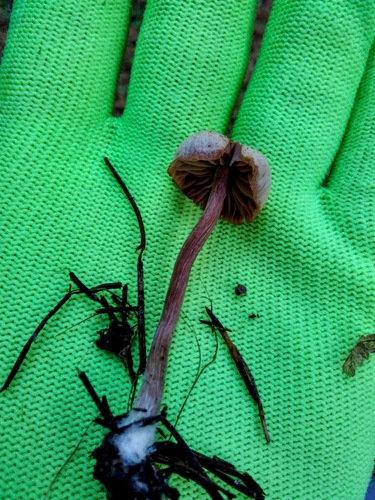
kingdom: Fungi
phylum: Basidiomycota
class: Agaricomycetes
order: Agaricales
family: Hydnangiaceae
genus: Laccaria
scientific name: Laccaria
